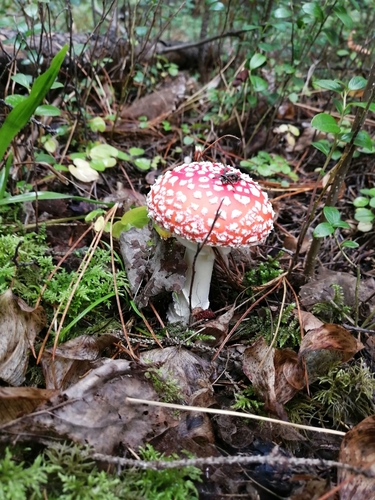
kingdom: Fungi
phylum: Basidiomycota
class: Agaricomycetes
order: Agaricales
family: Amanitaceae
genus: Amanita
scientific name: Amanita muscaria
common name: Fly agaric
